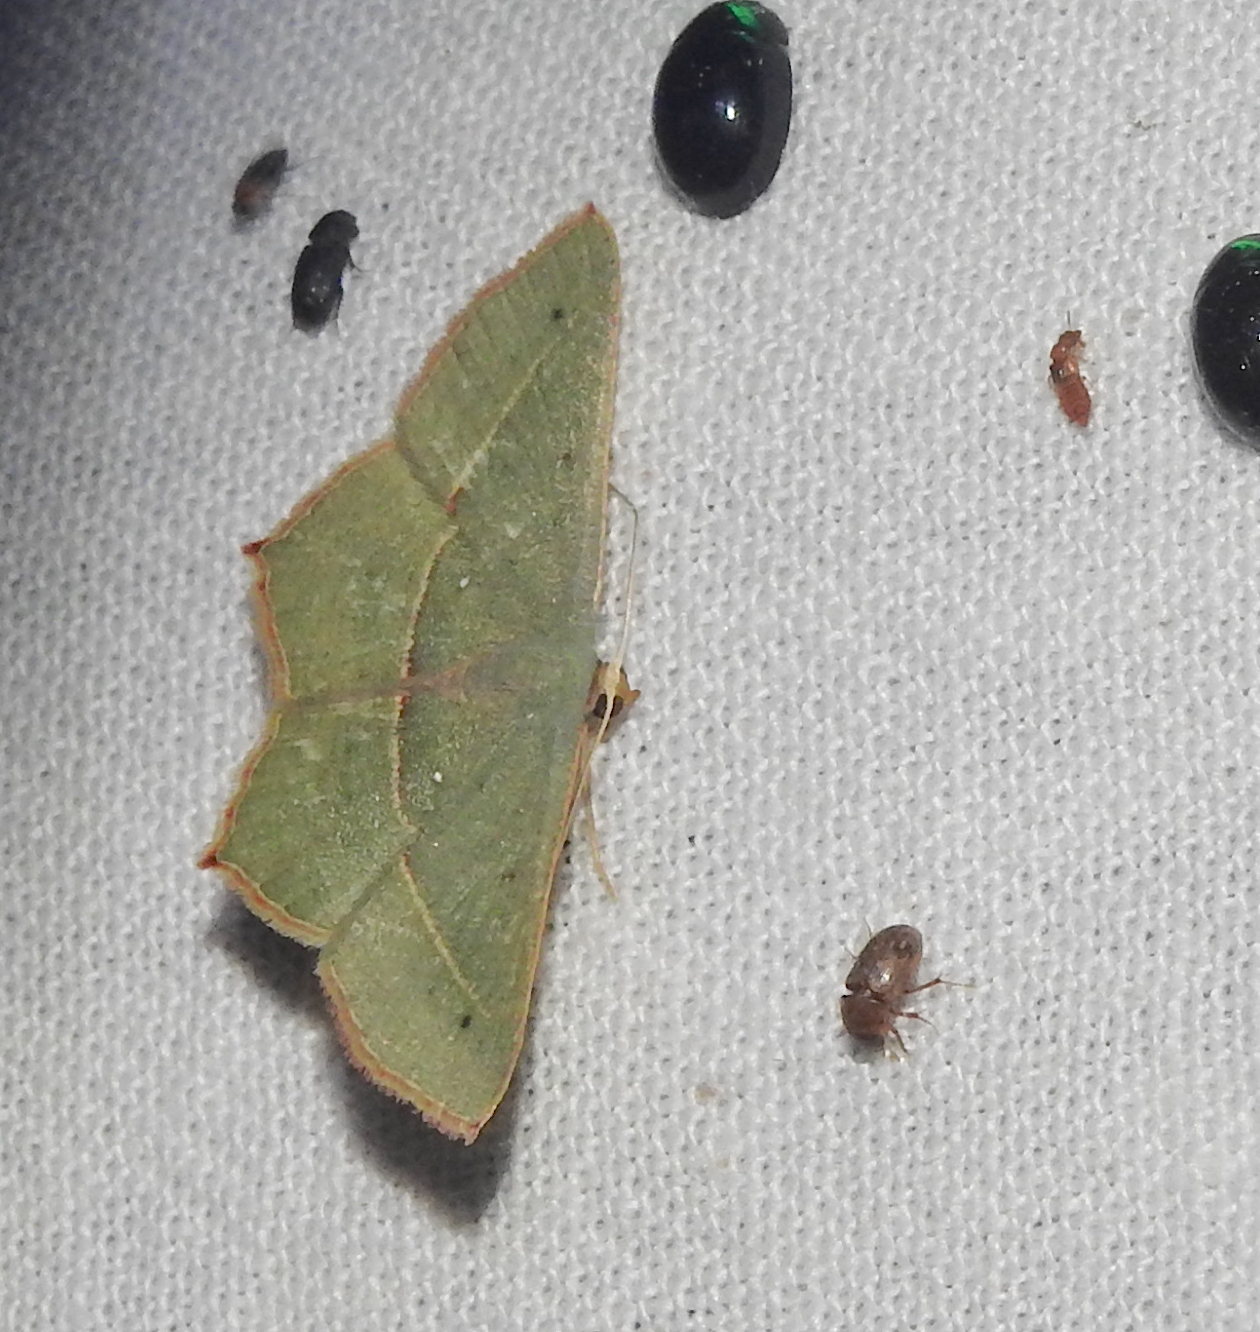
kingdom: Animalia
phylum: Arthropoda
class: Insecta
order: Lepidoptera
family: Geometridae
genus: Traminda
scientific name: Traminda mundissima
